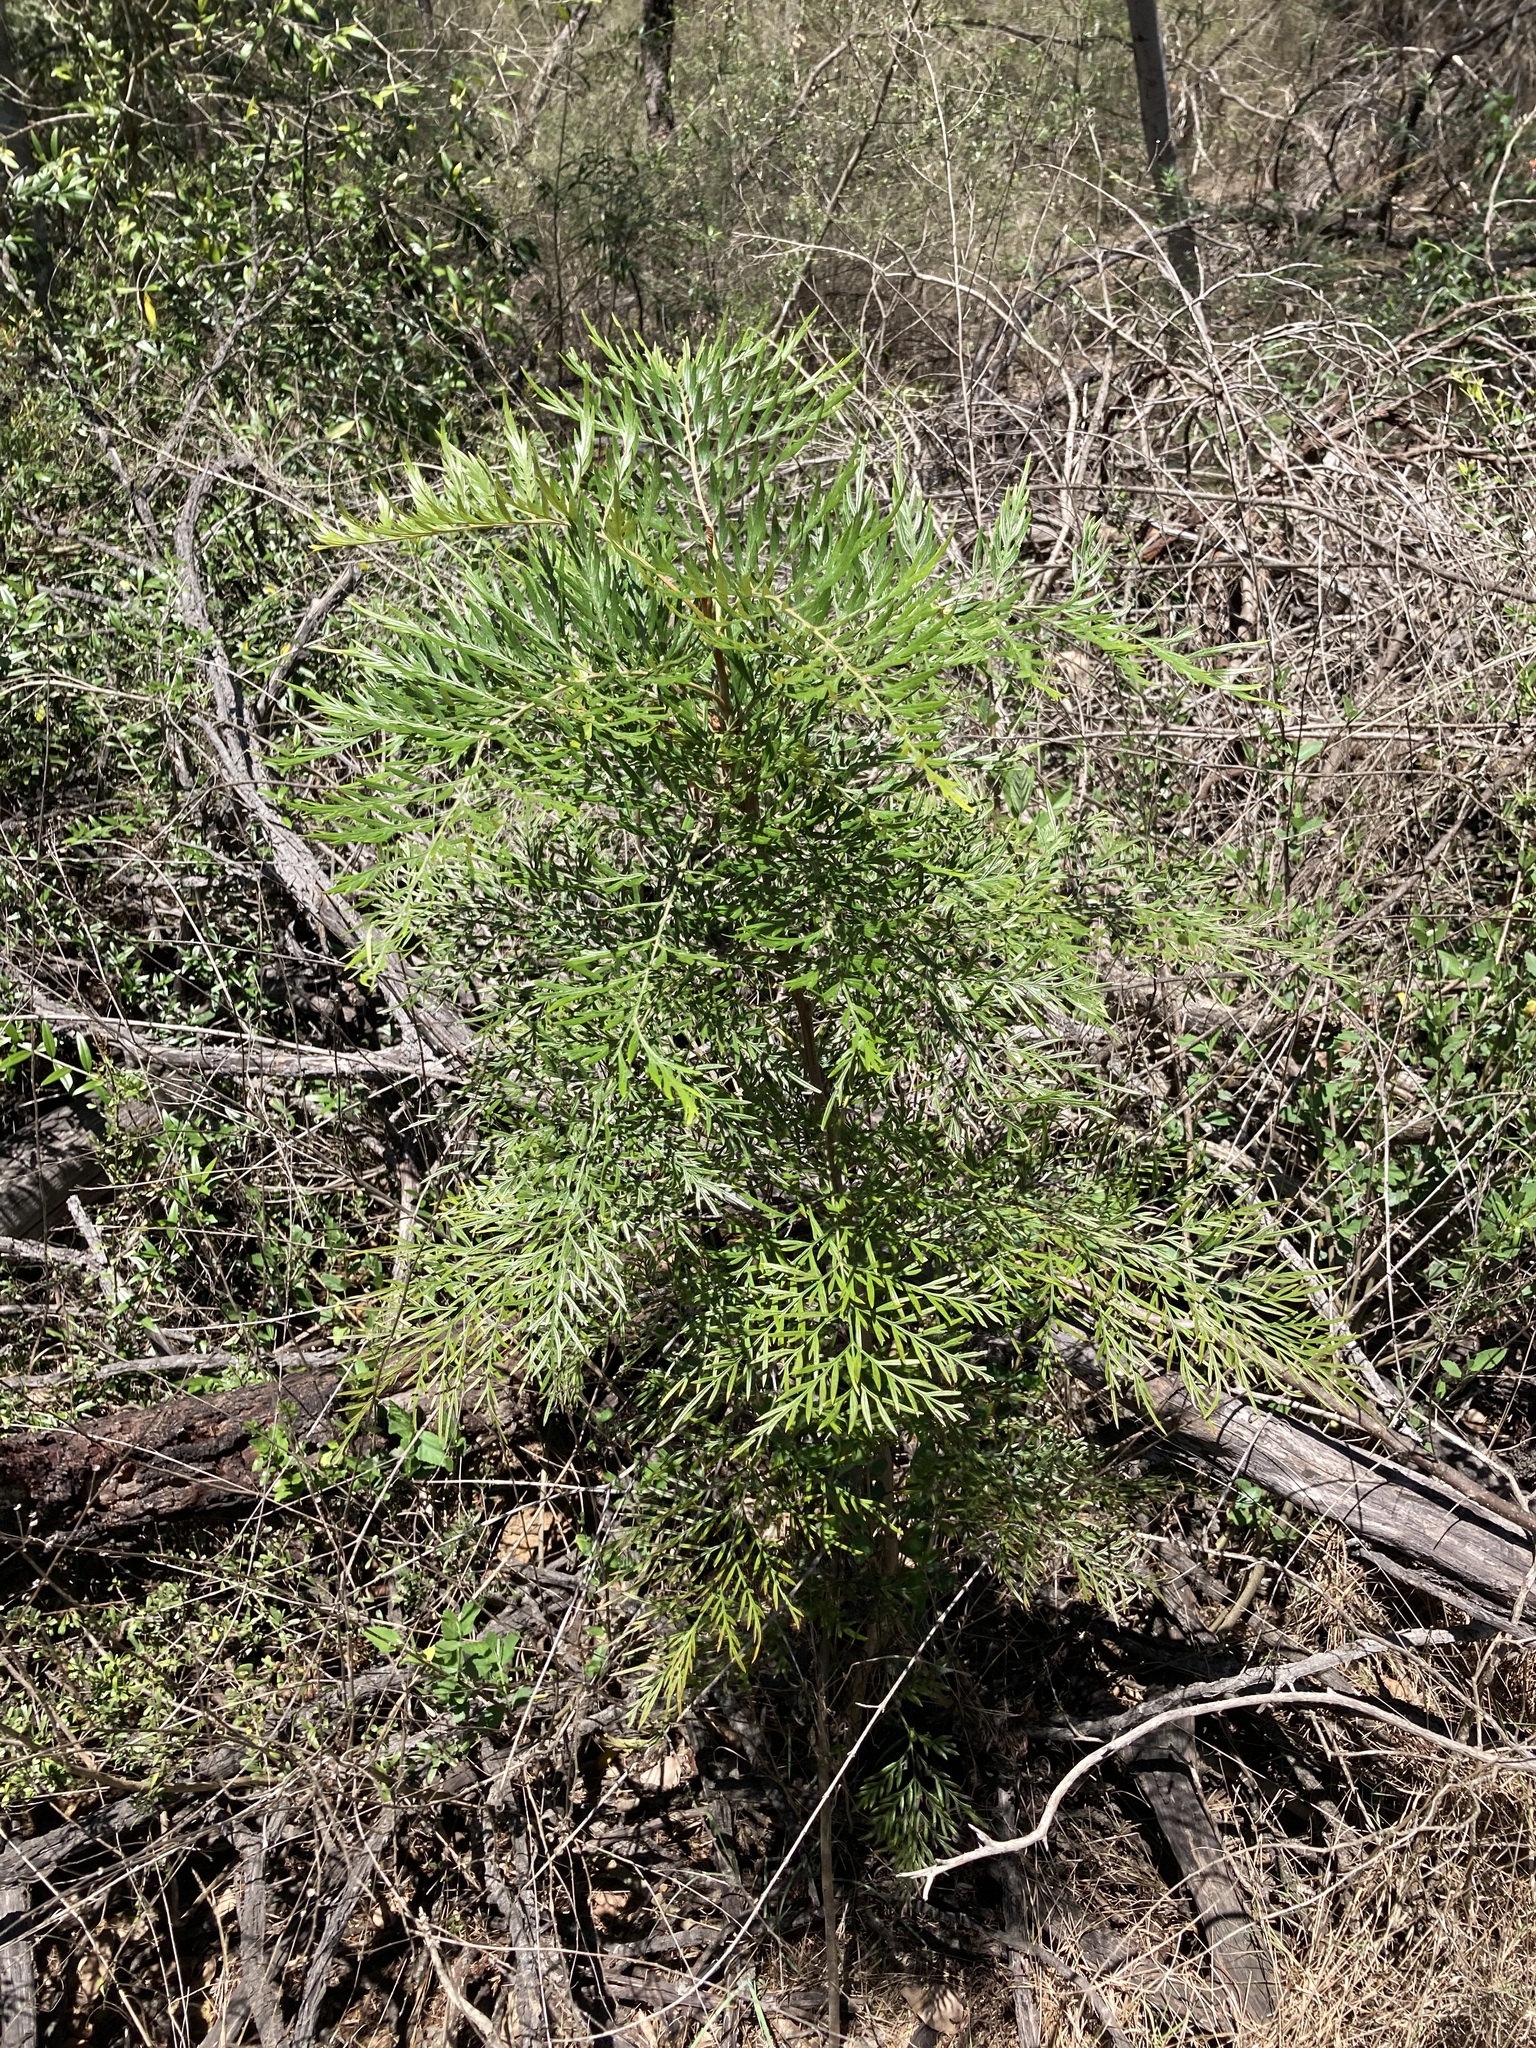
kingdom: Plantae
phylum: Tracheophyta
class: Magnoliopsida
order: Proteales
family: Proteaceae
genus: Grevillea
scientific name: Grevillea robusta
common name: Silkoak
